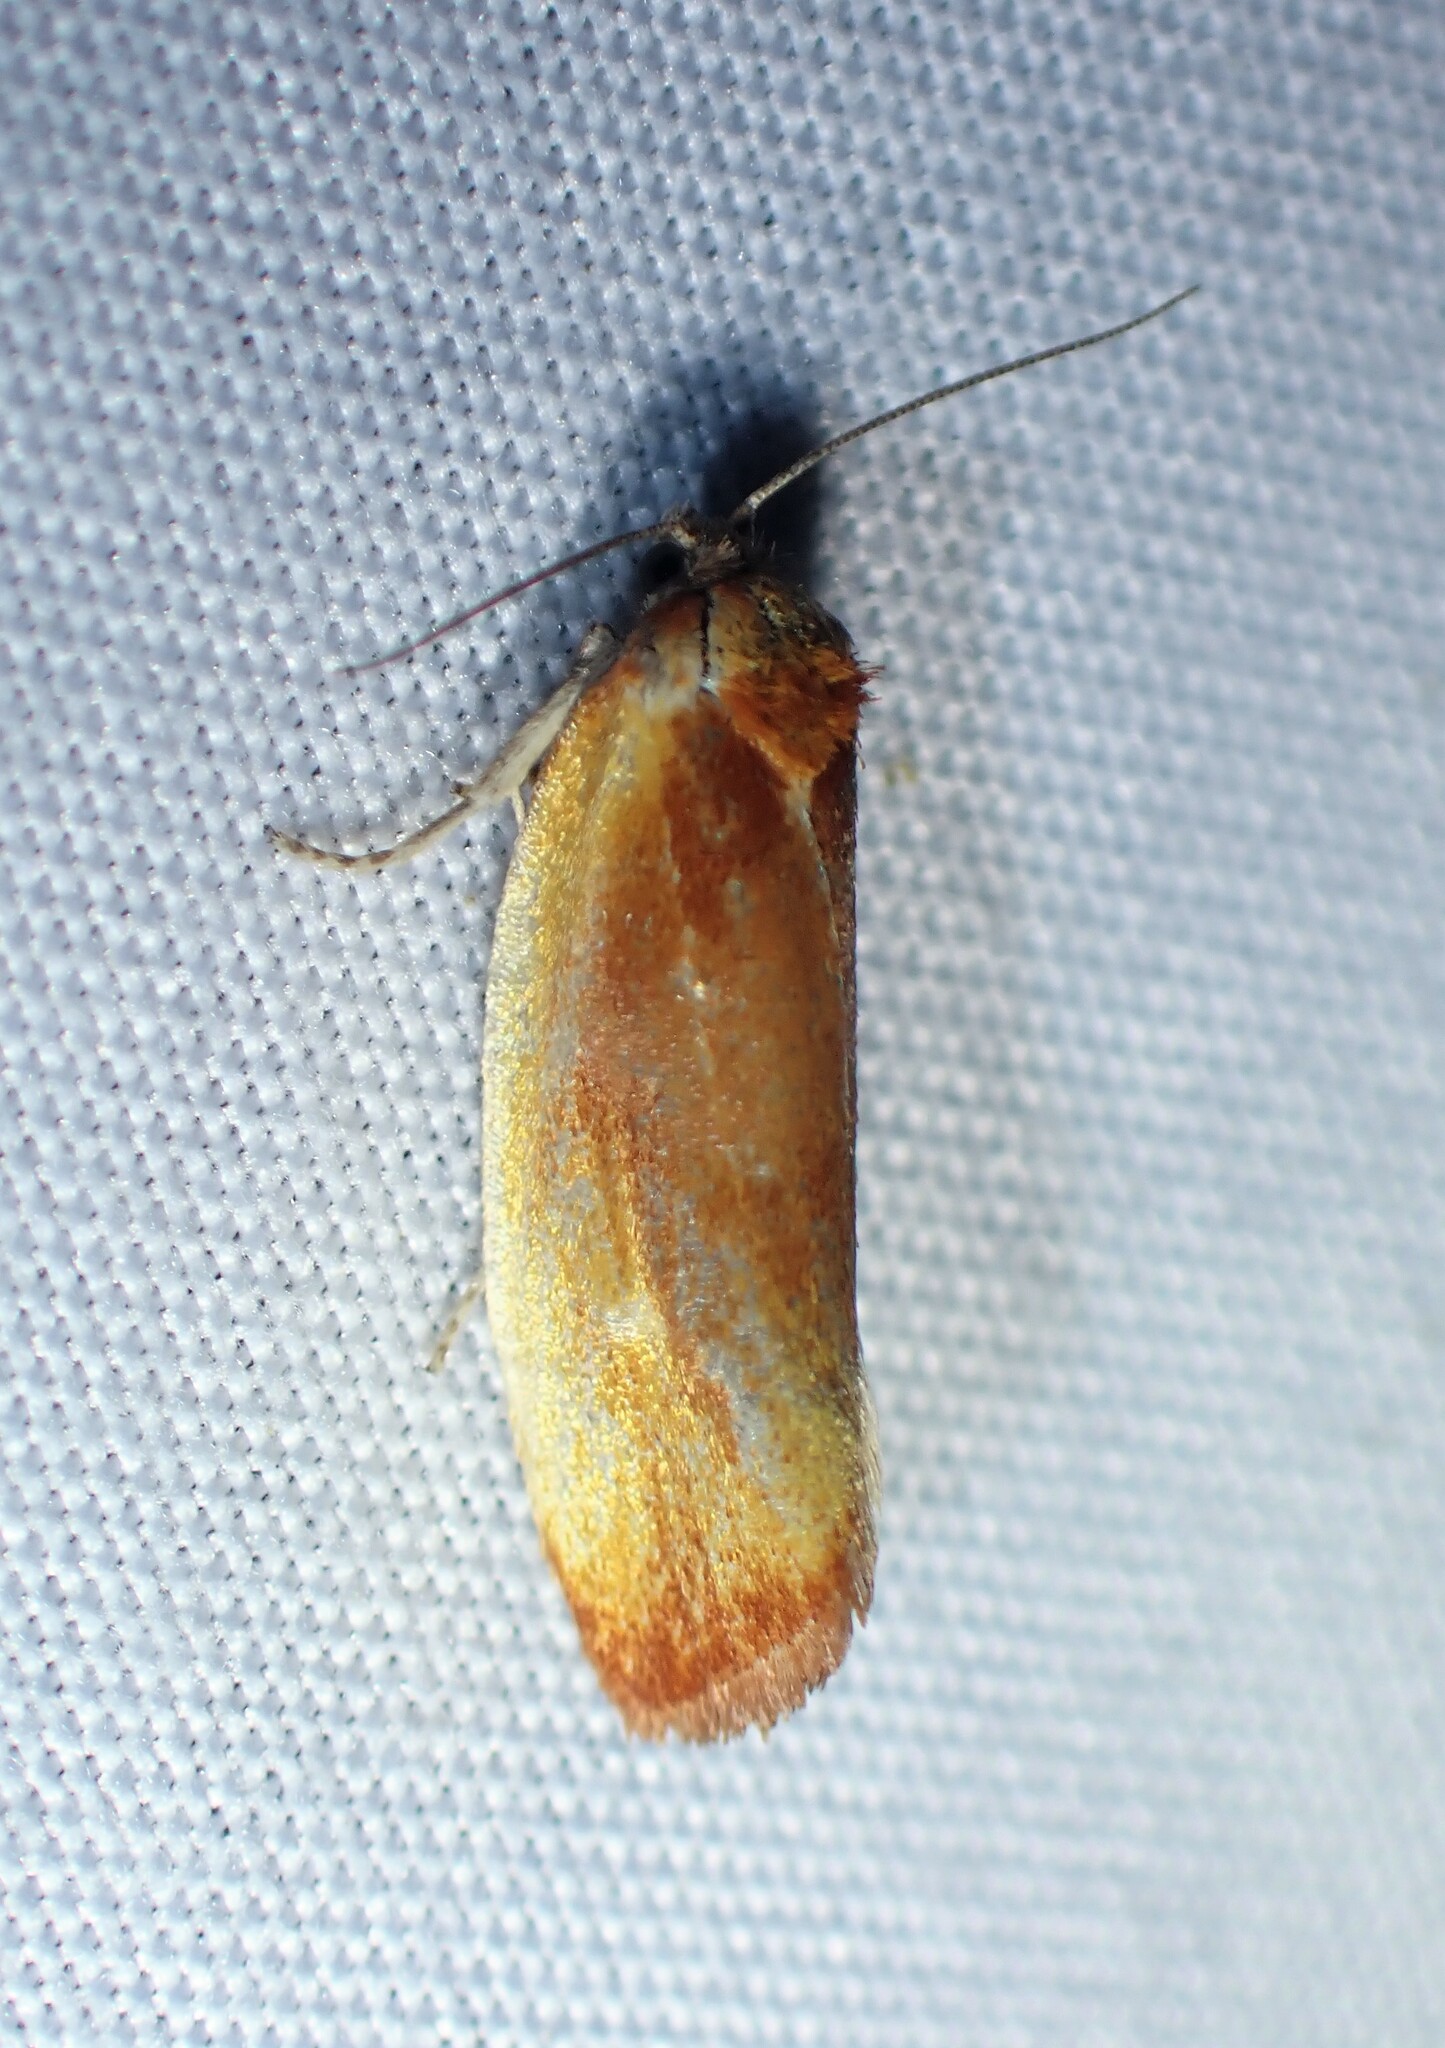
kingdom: Animalia
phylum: Arthropoda
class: Insecta
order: Lepidoptera
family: Tortricidae
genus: Eulia
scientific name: Eulia ministrana
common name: Brassy twist
